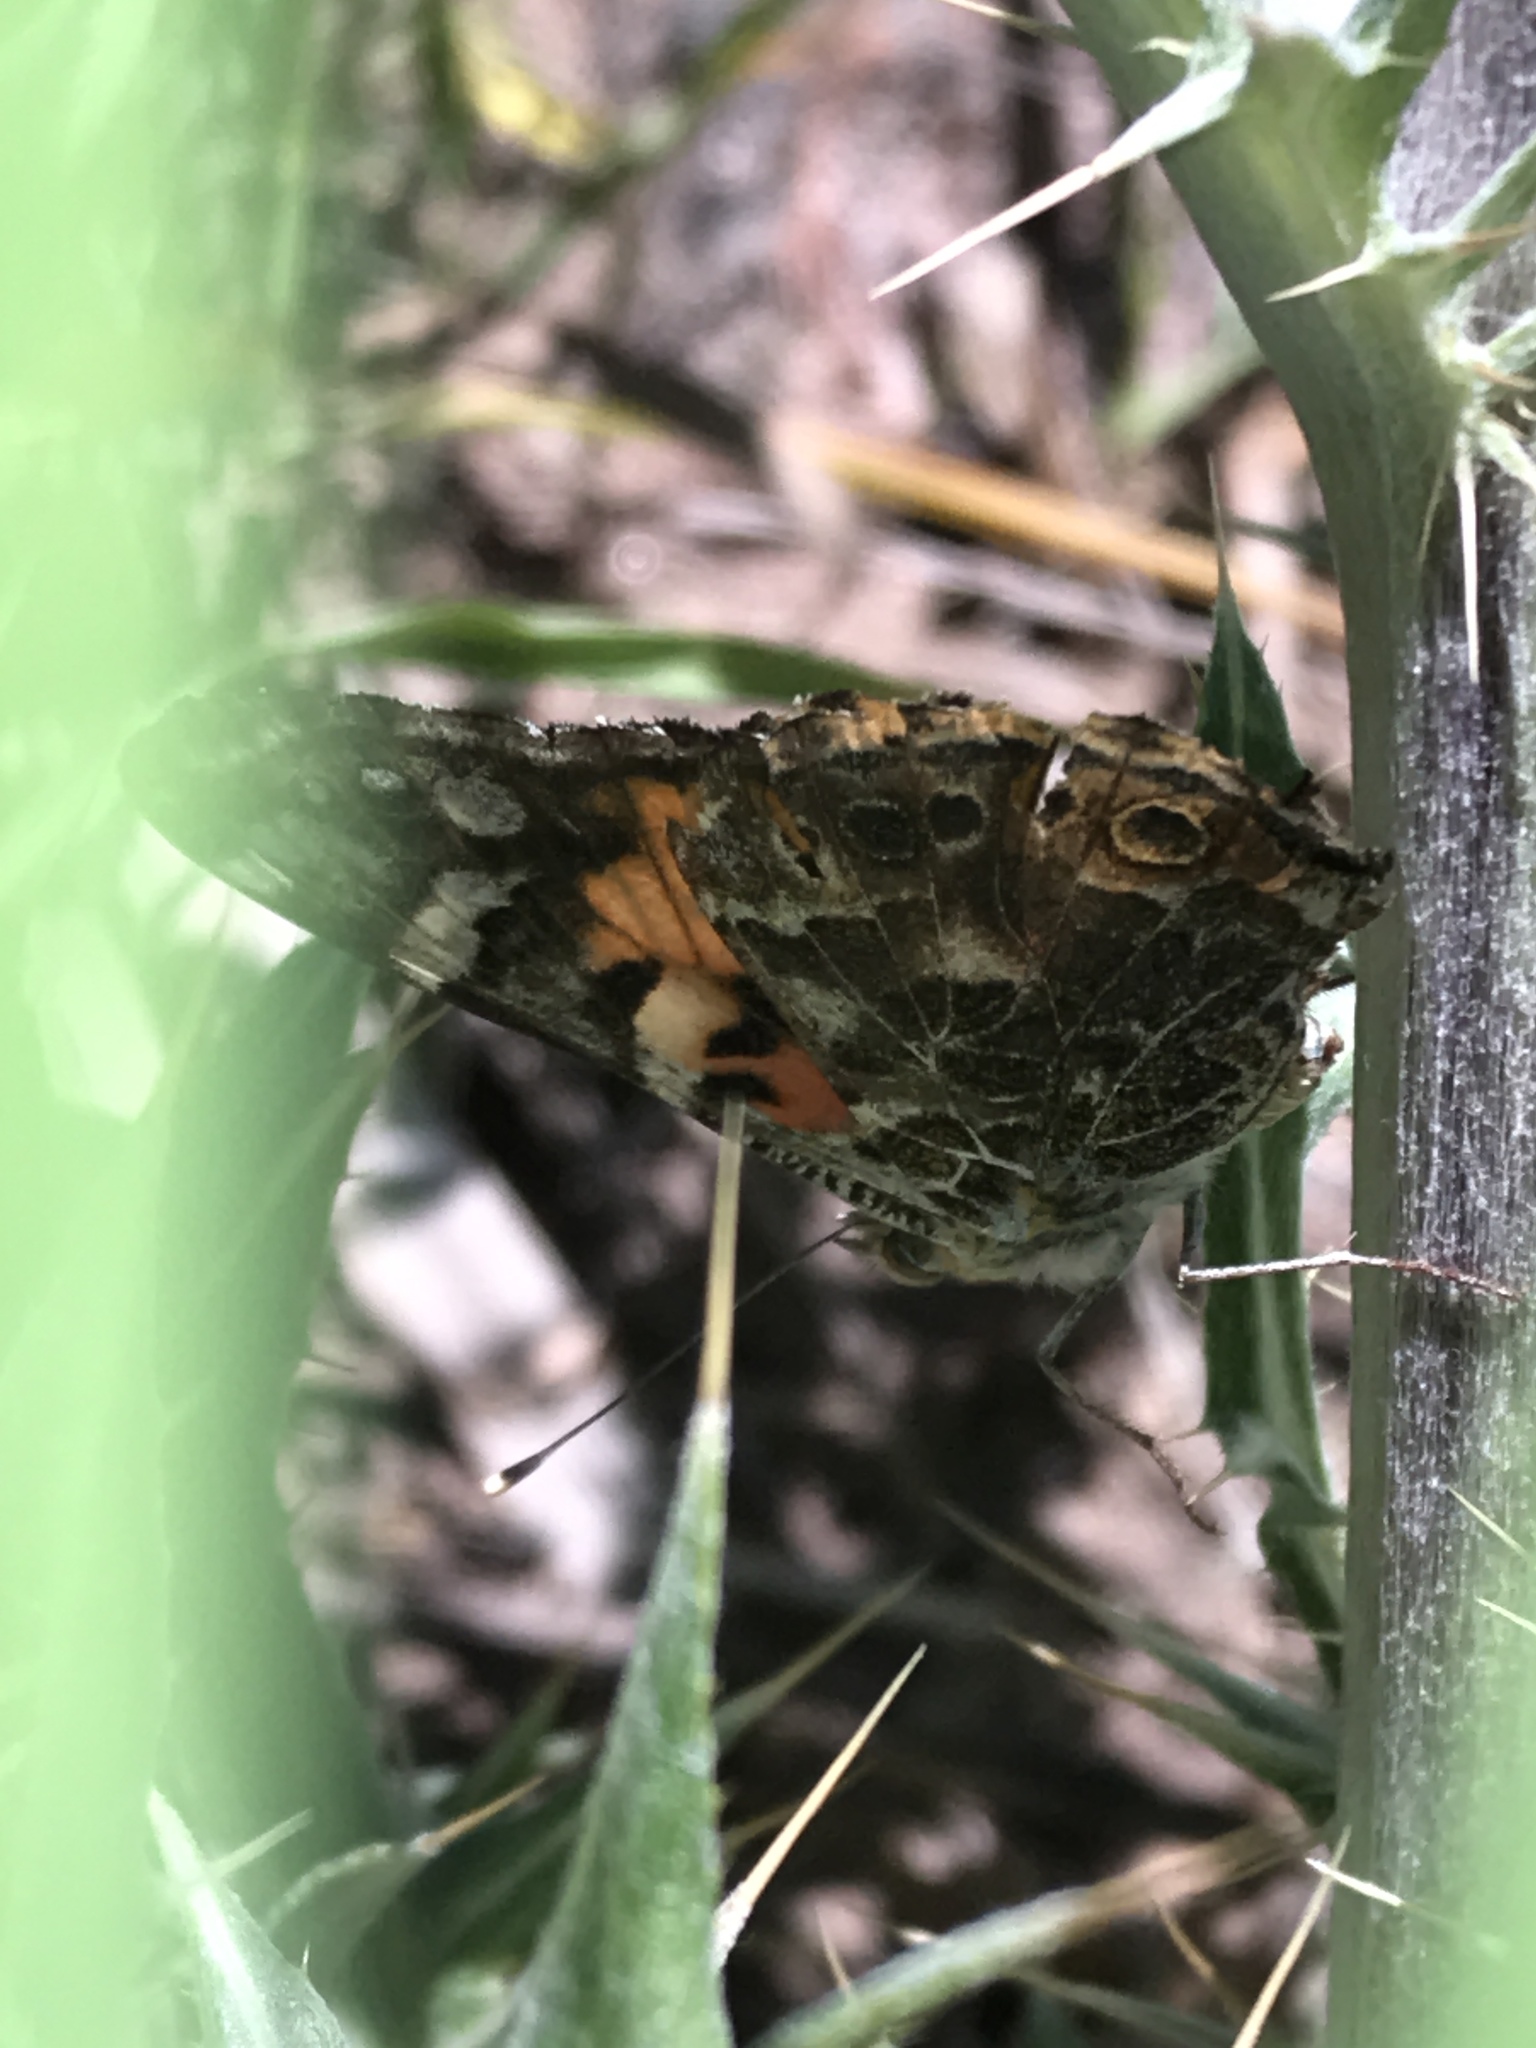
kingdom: Animalia
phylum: Arthropoda
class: Insecta
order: Lepidoptera
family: Nymphalidae
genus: Vanessa
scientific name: Vanessa cardui
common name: Painted lady
